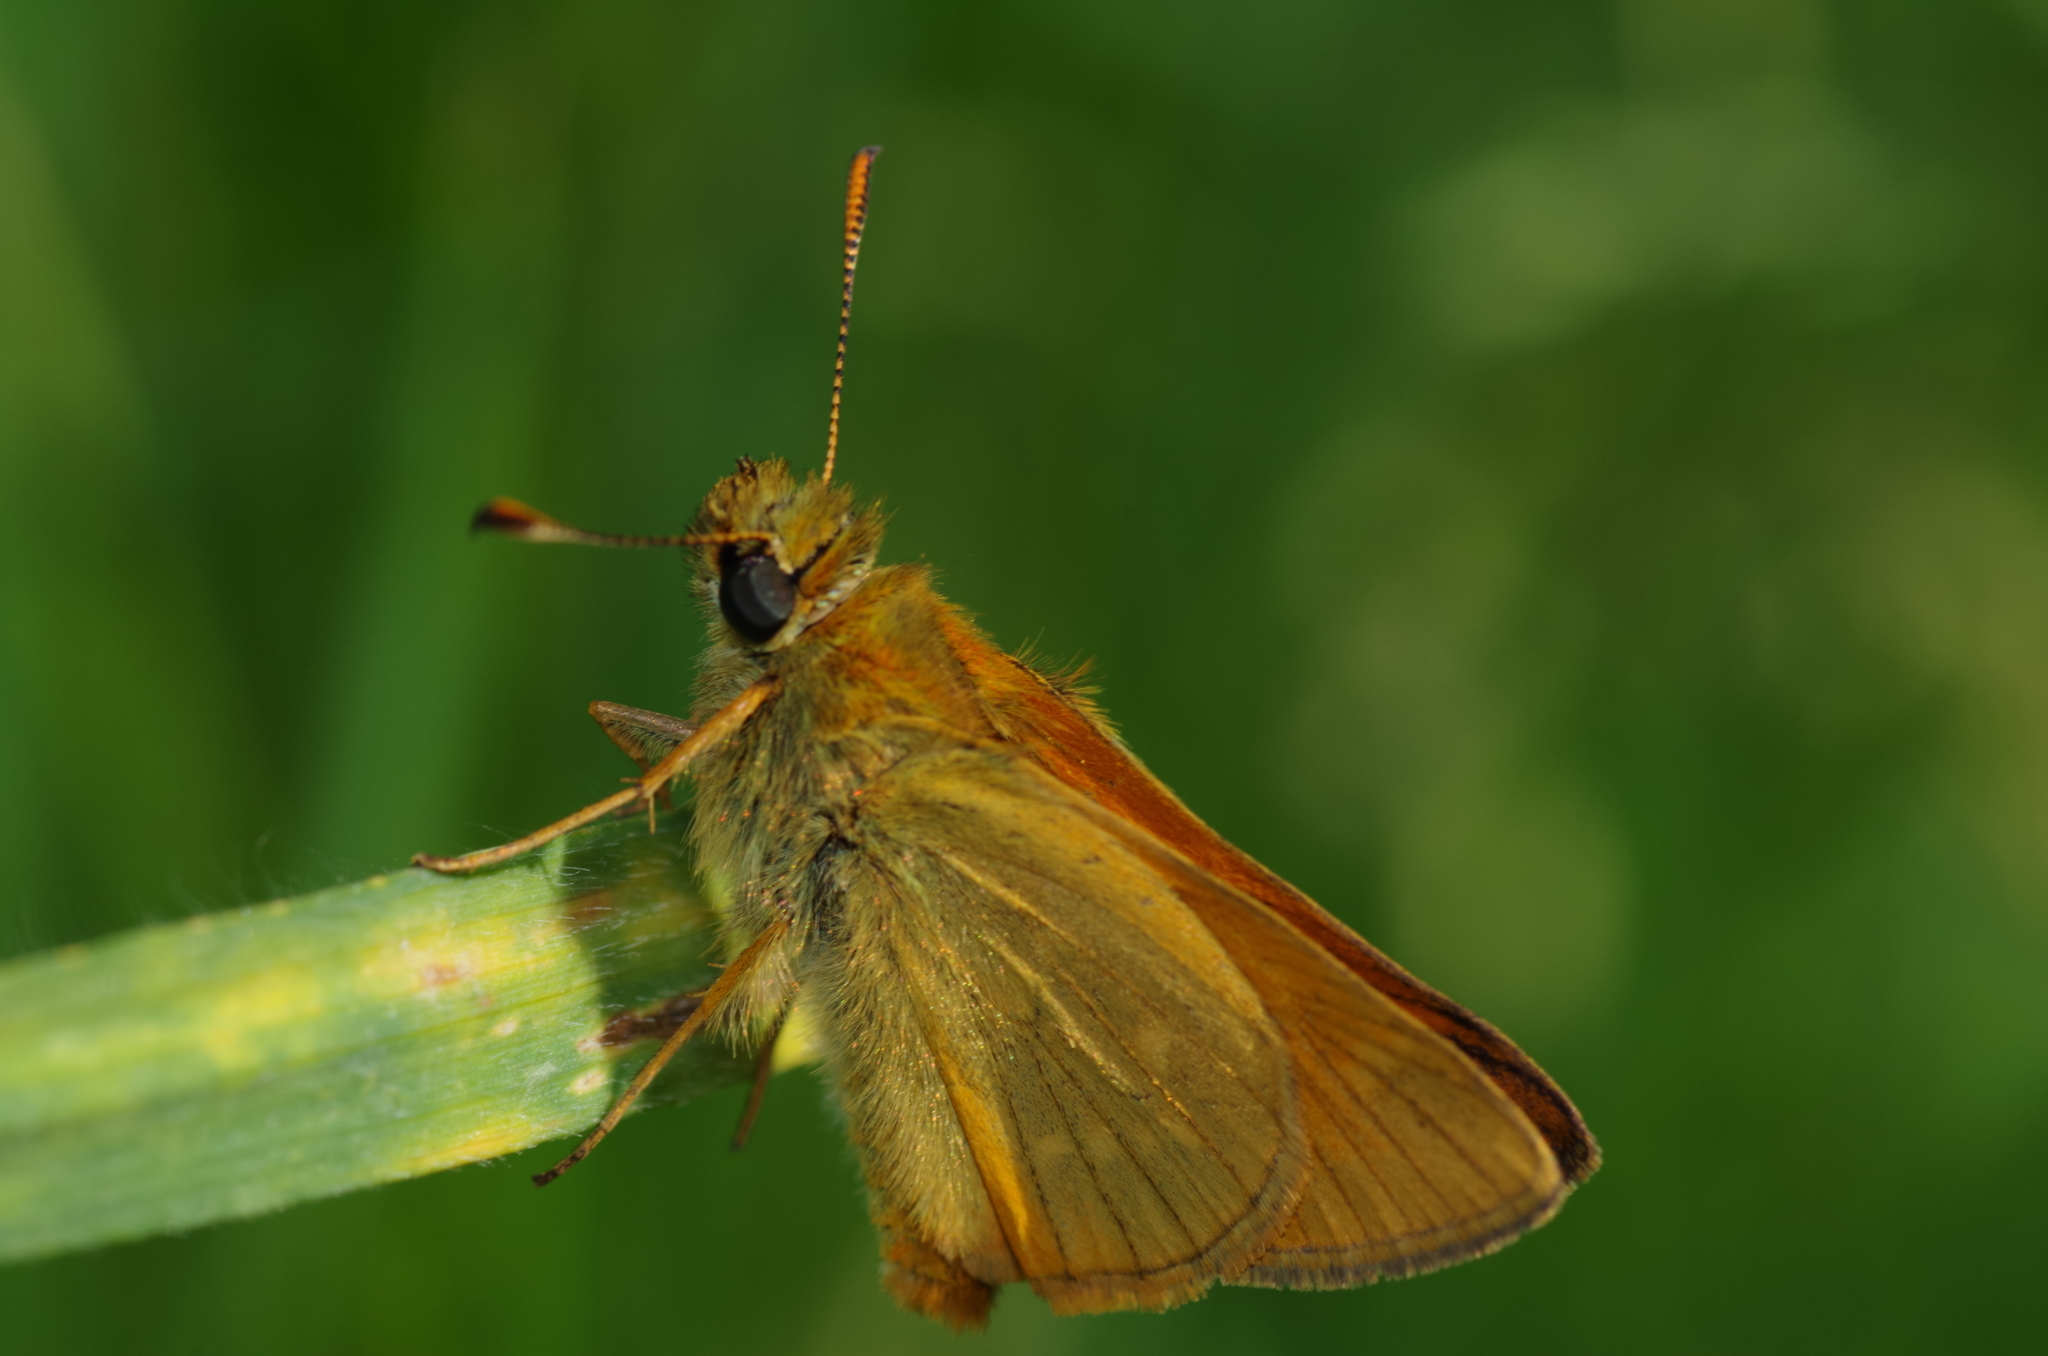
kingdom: Animalia
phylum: Arthropoda
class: Insecta
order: Lepidoptera
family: Hesperiidae
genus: Ochlodes
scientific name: Ochlodes venata
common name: Large skipper
